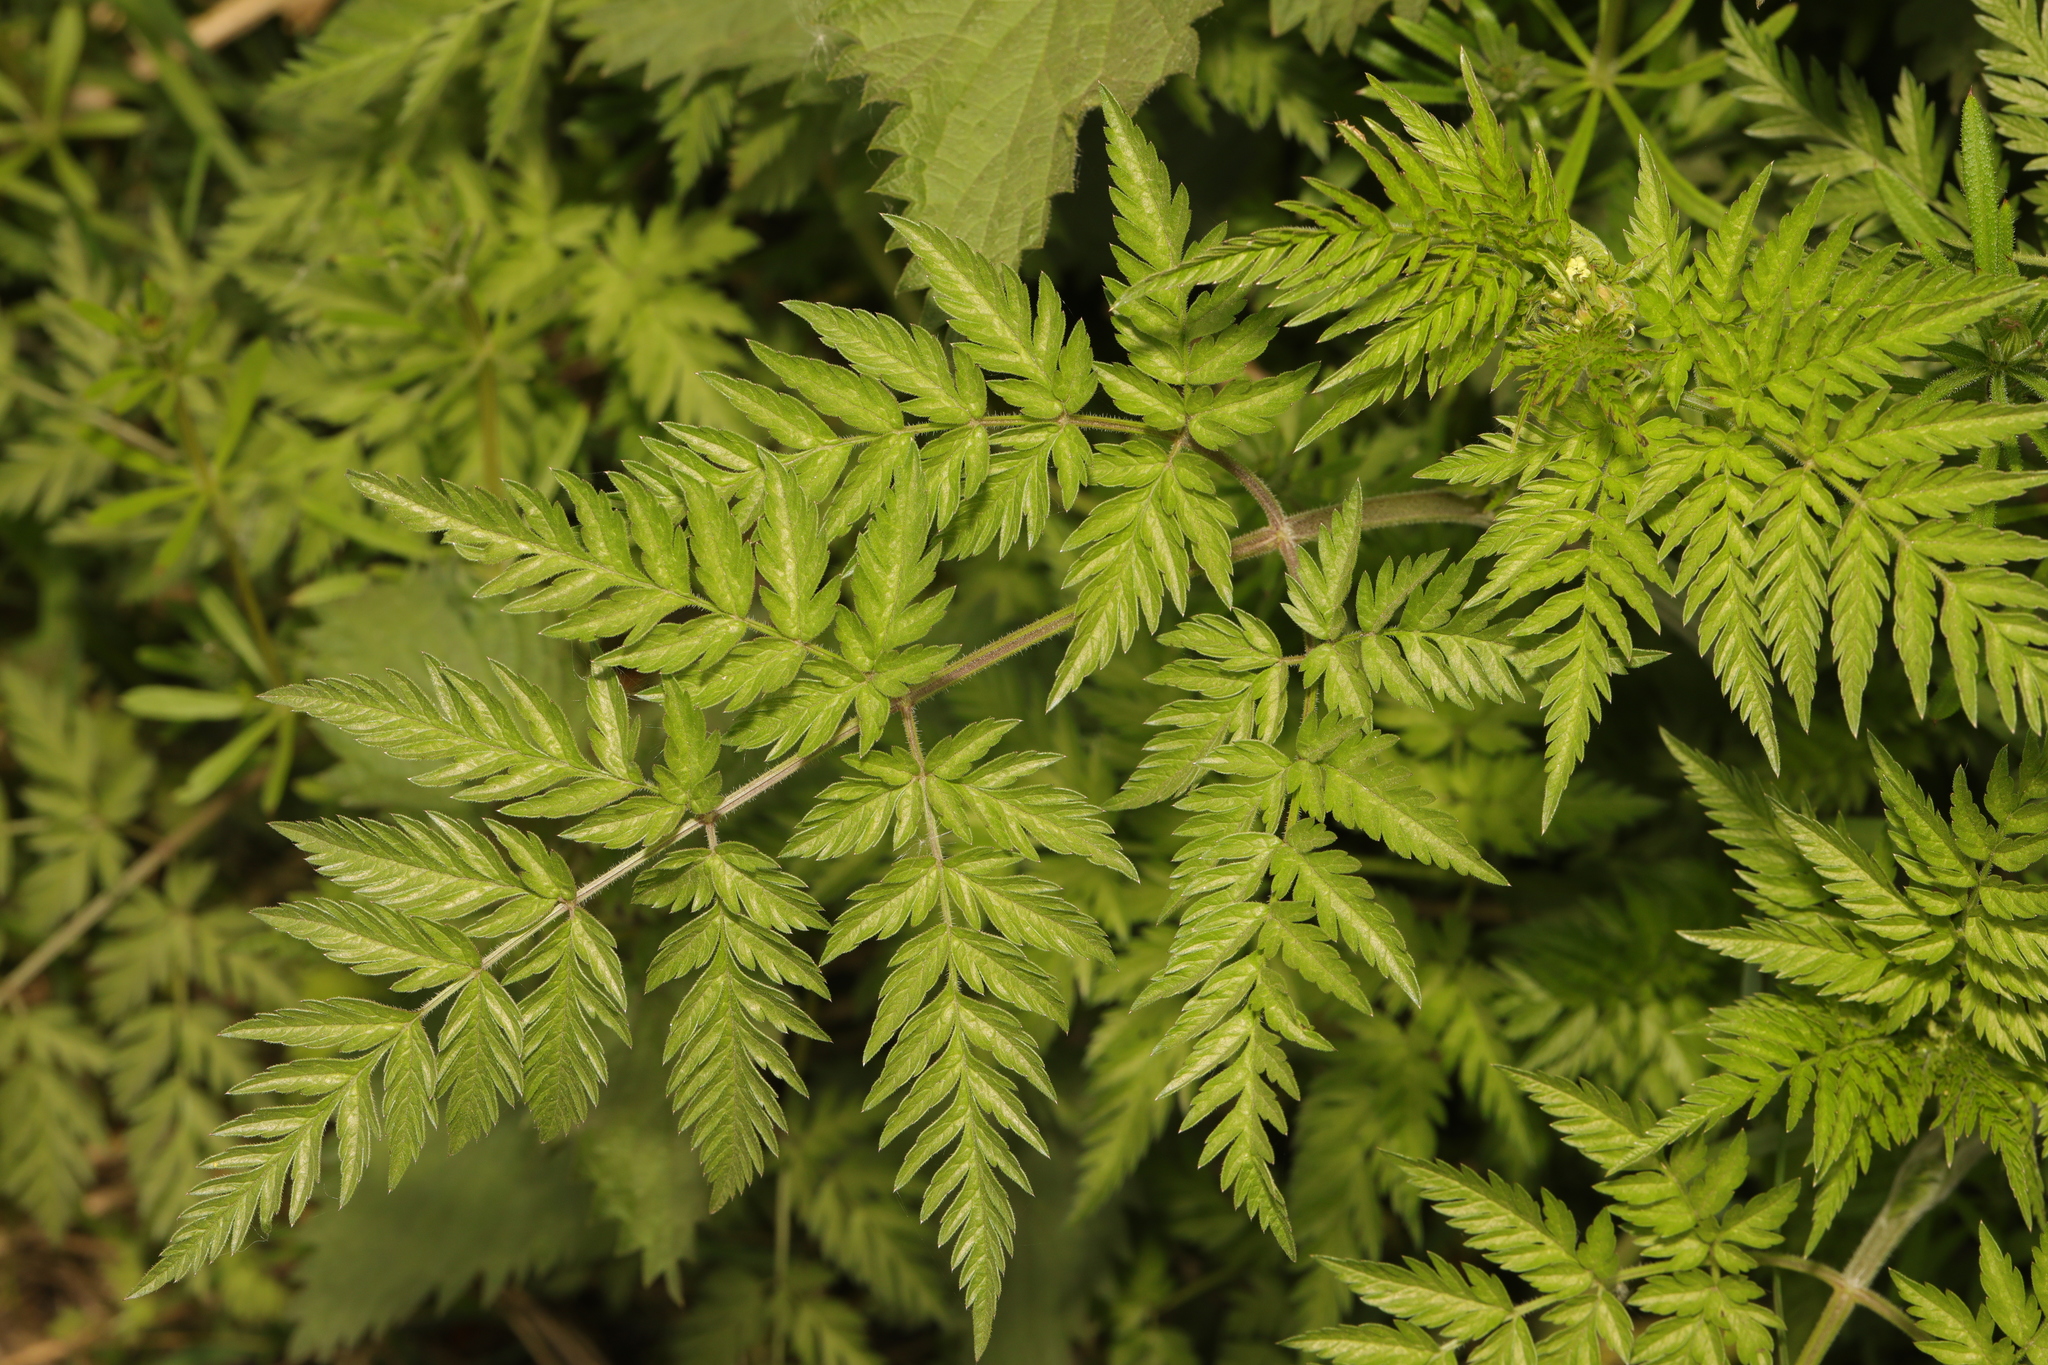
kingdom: Plantae
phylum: Tracheophyta
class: Magnoliopsida
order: Apiales
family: Apiaceae
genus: Anthriscus
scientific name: Anthriscus sylvestris
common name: Cow parsley
